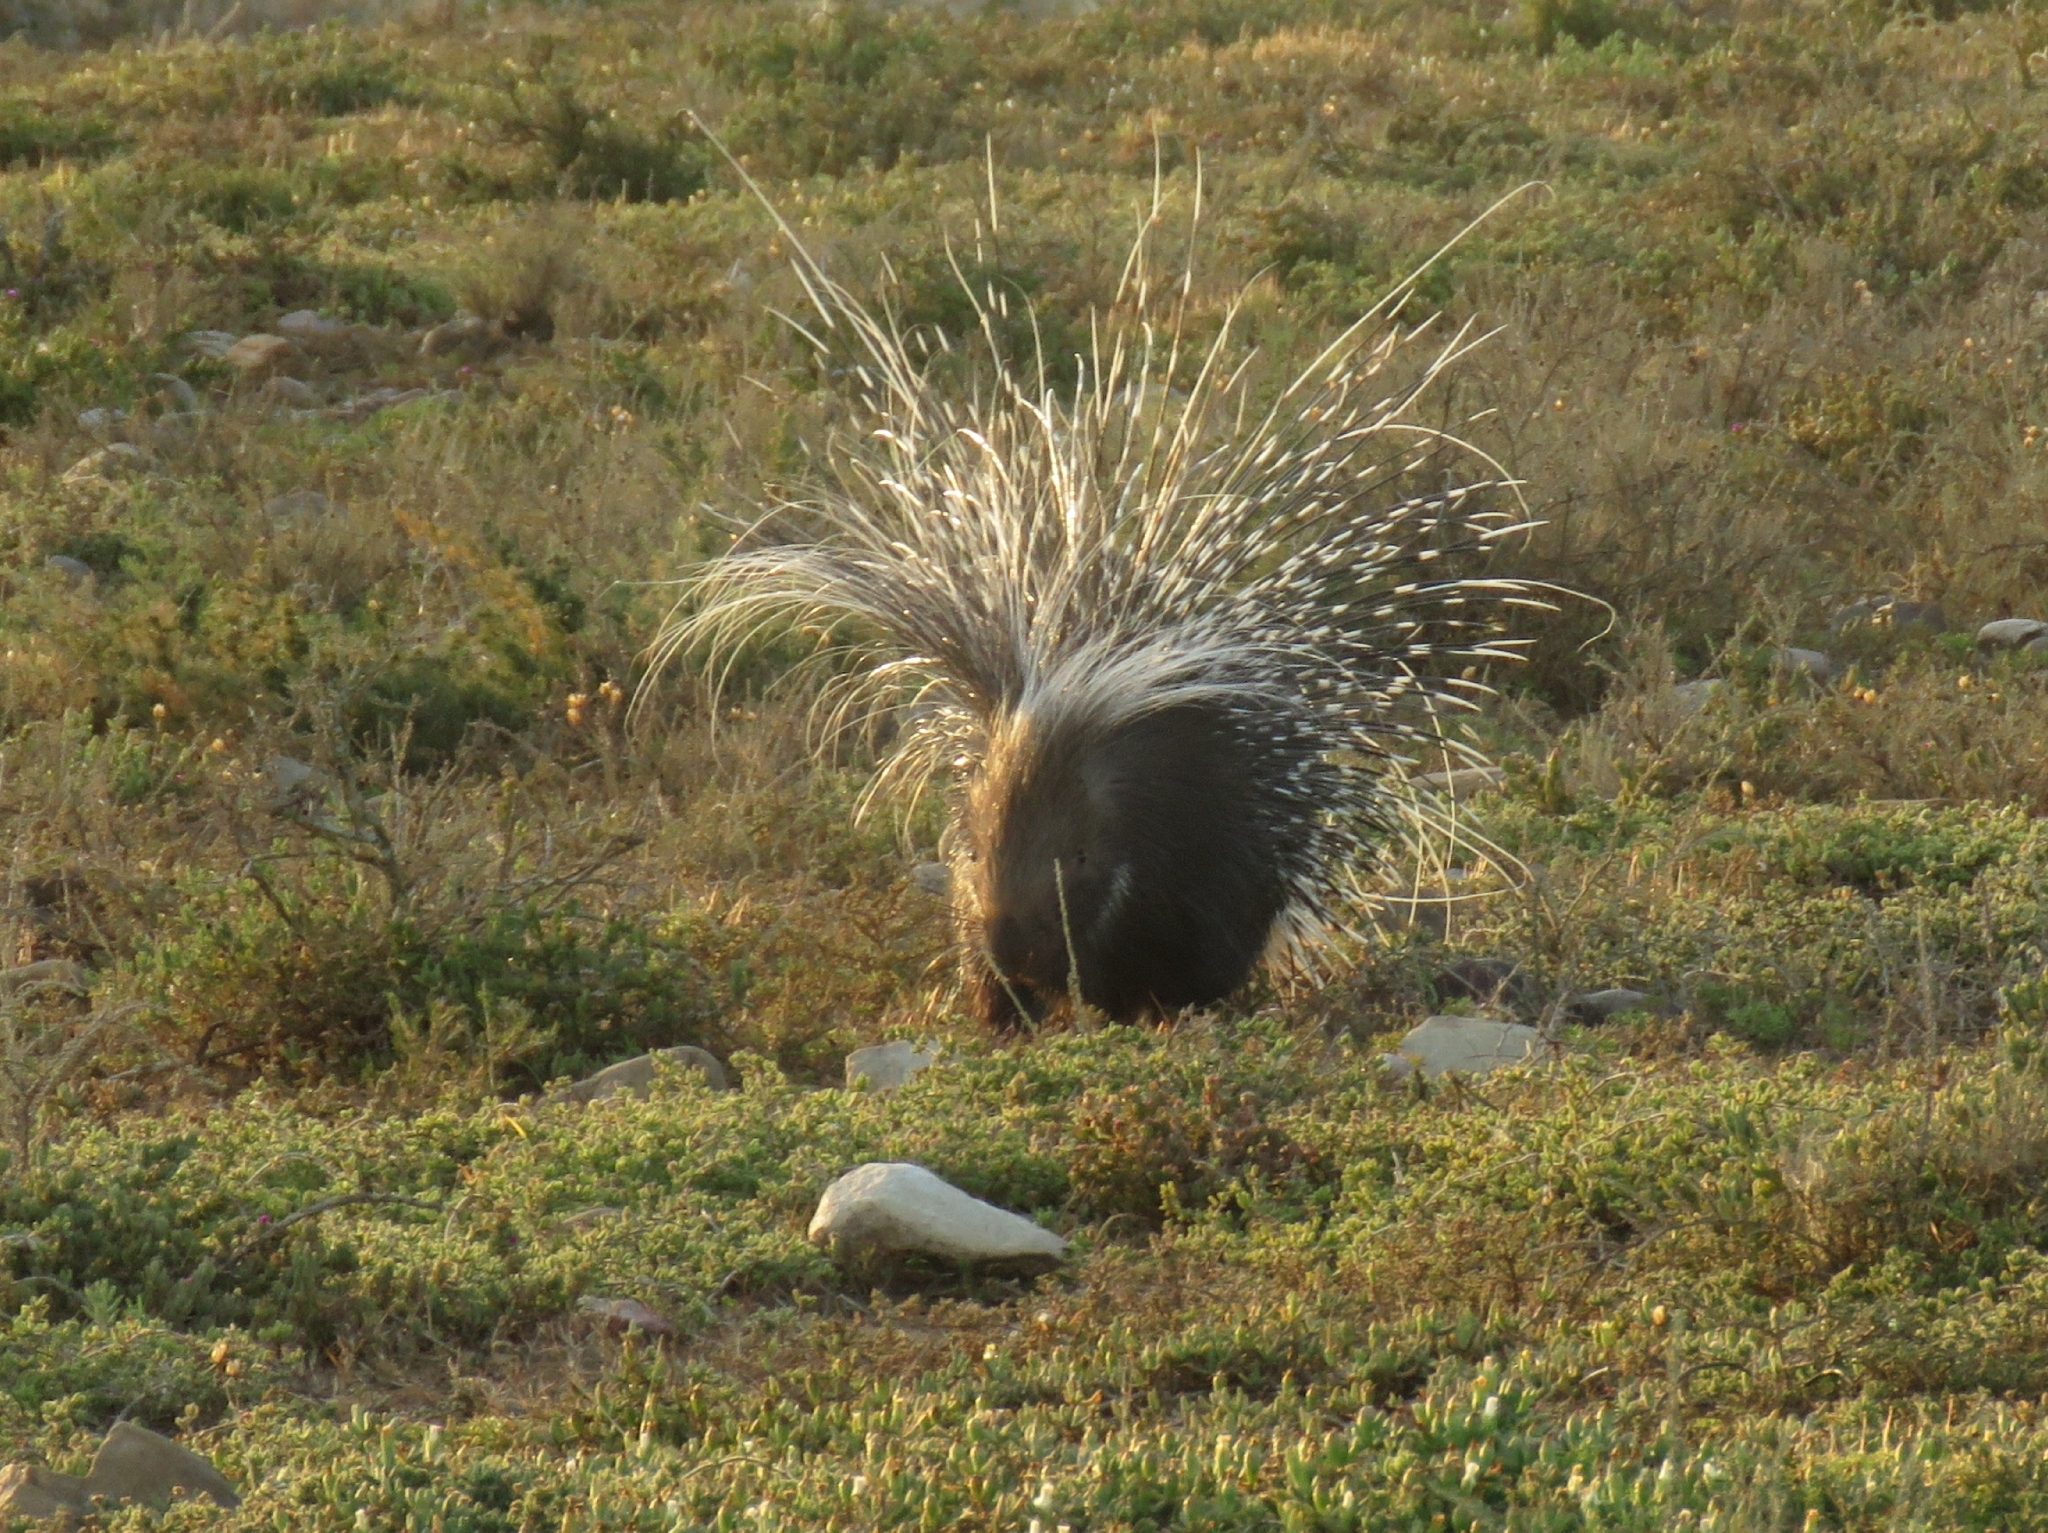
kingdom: Animalia
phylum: Chordata
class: Mammalia
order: Rodentia
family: Hystricidae
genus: Hystrix
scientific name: Hystrix africaeaustralis
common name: Cape porcupine
